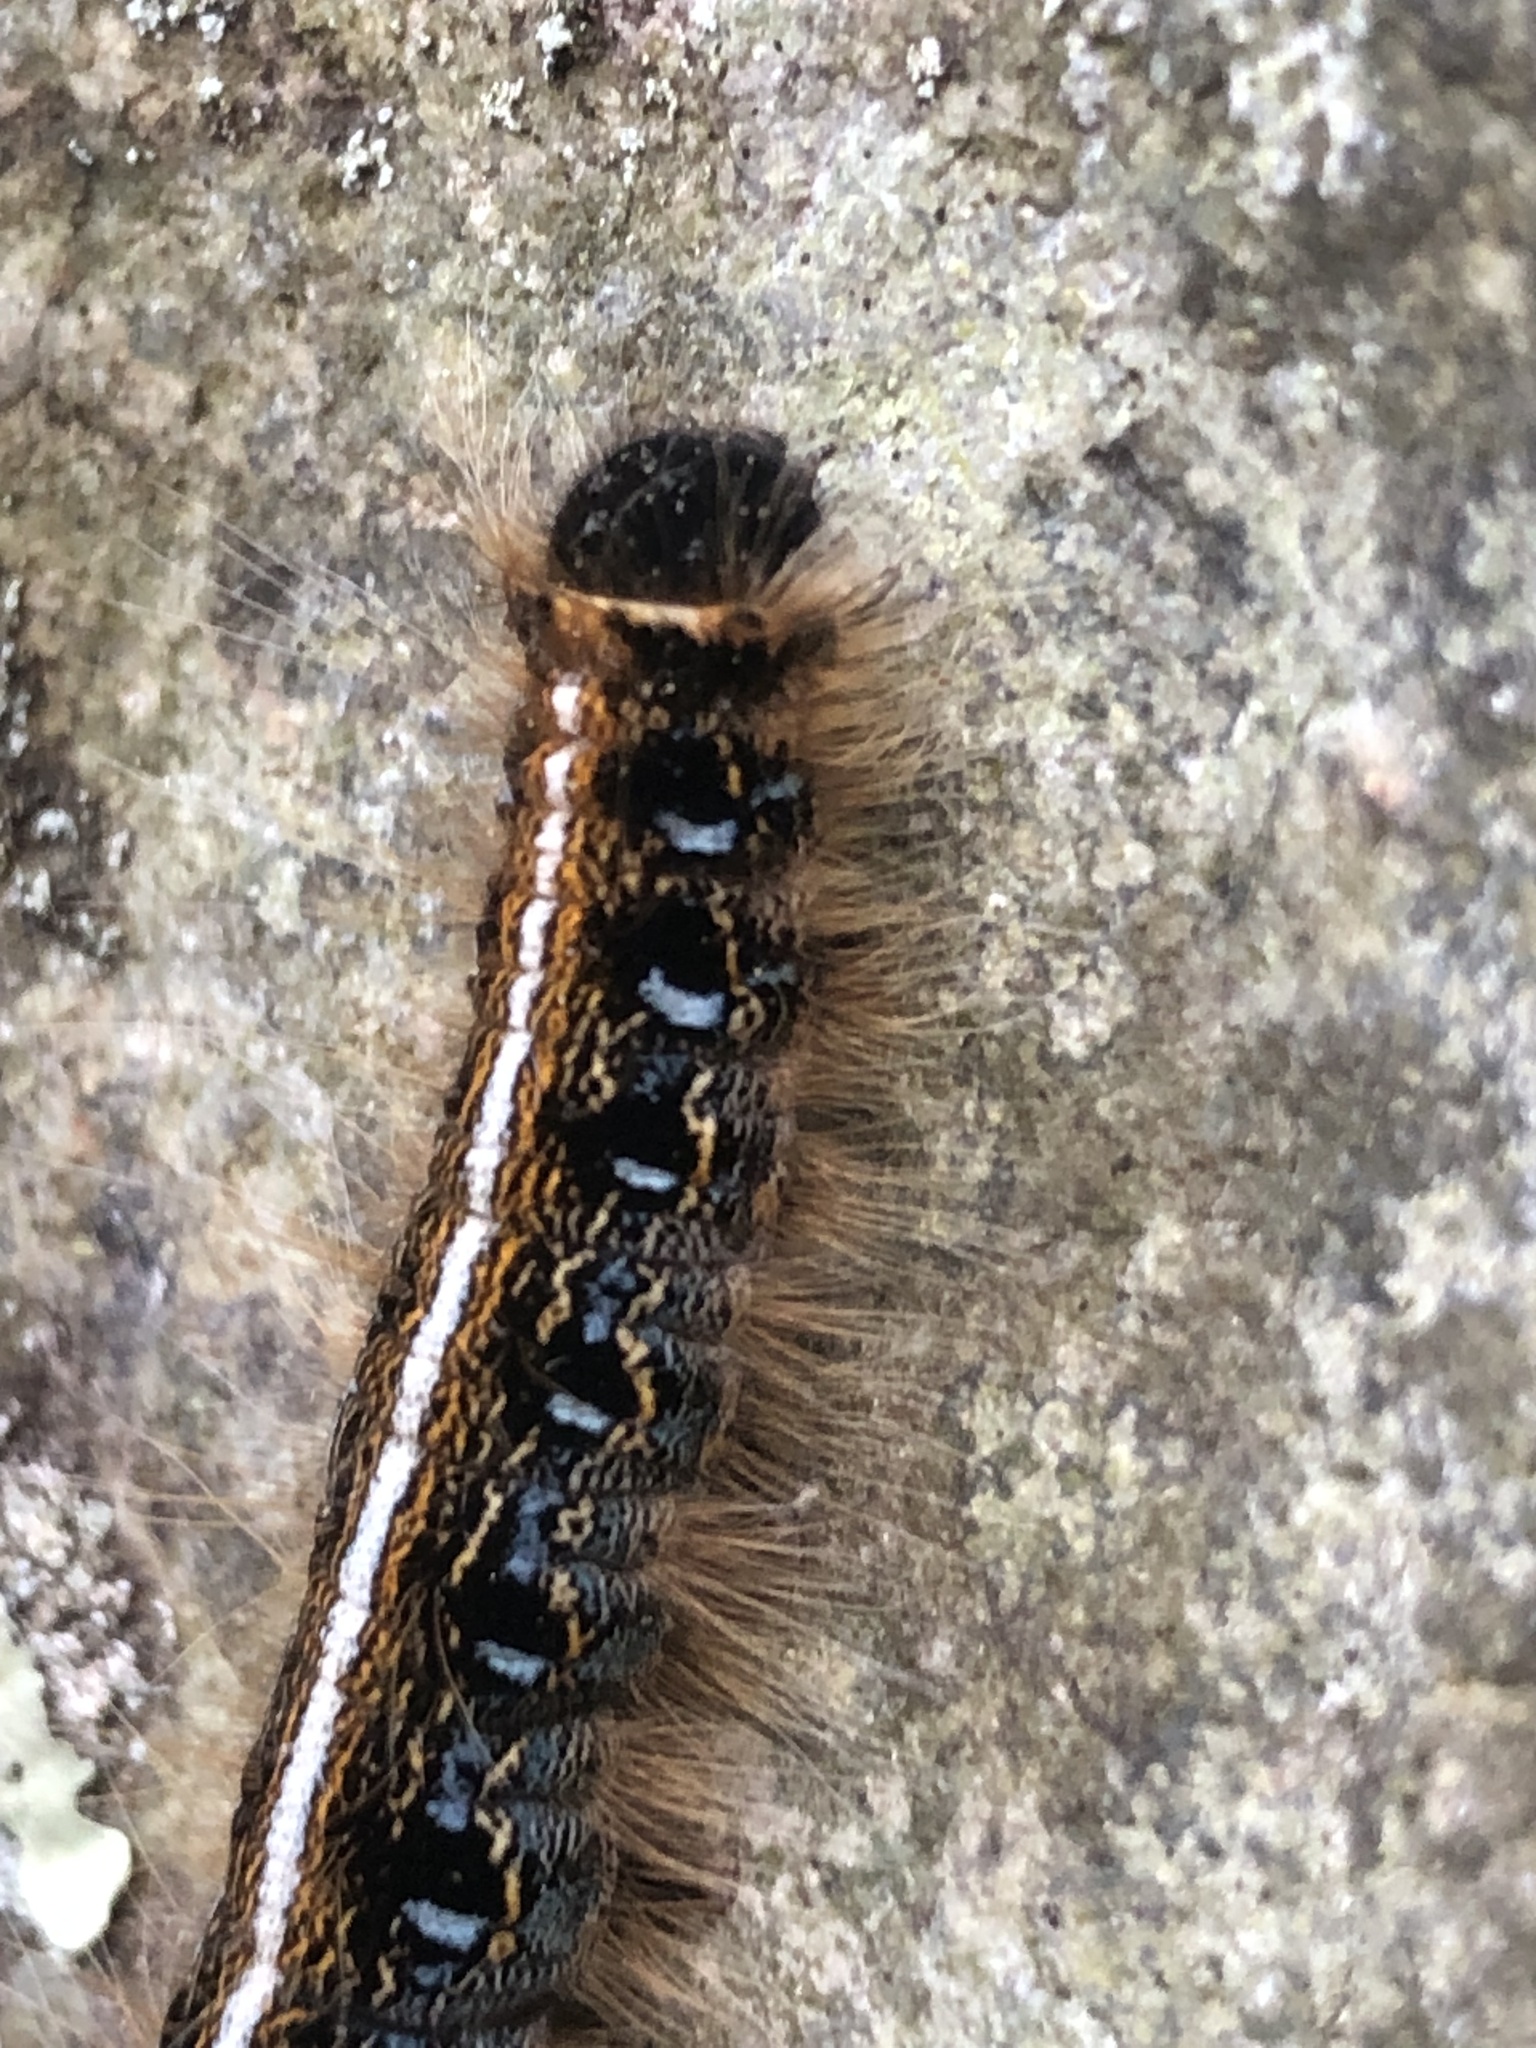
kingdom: Animalia
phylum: Arthropoda
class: Insecta
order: Lepidoptera
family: Lasiocampidae
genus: Malacosoma
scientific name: Malacosoma americana
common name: Eastern tent caterpillar moth
